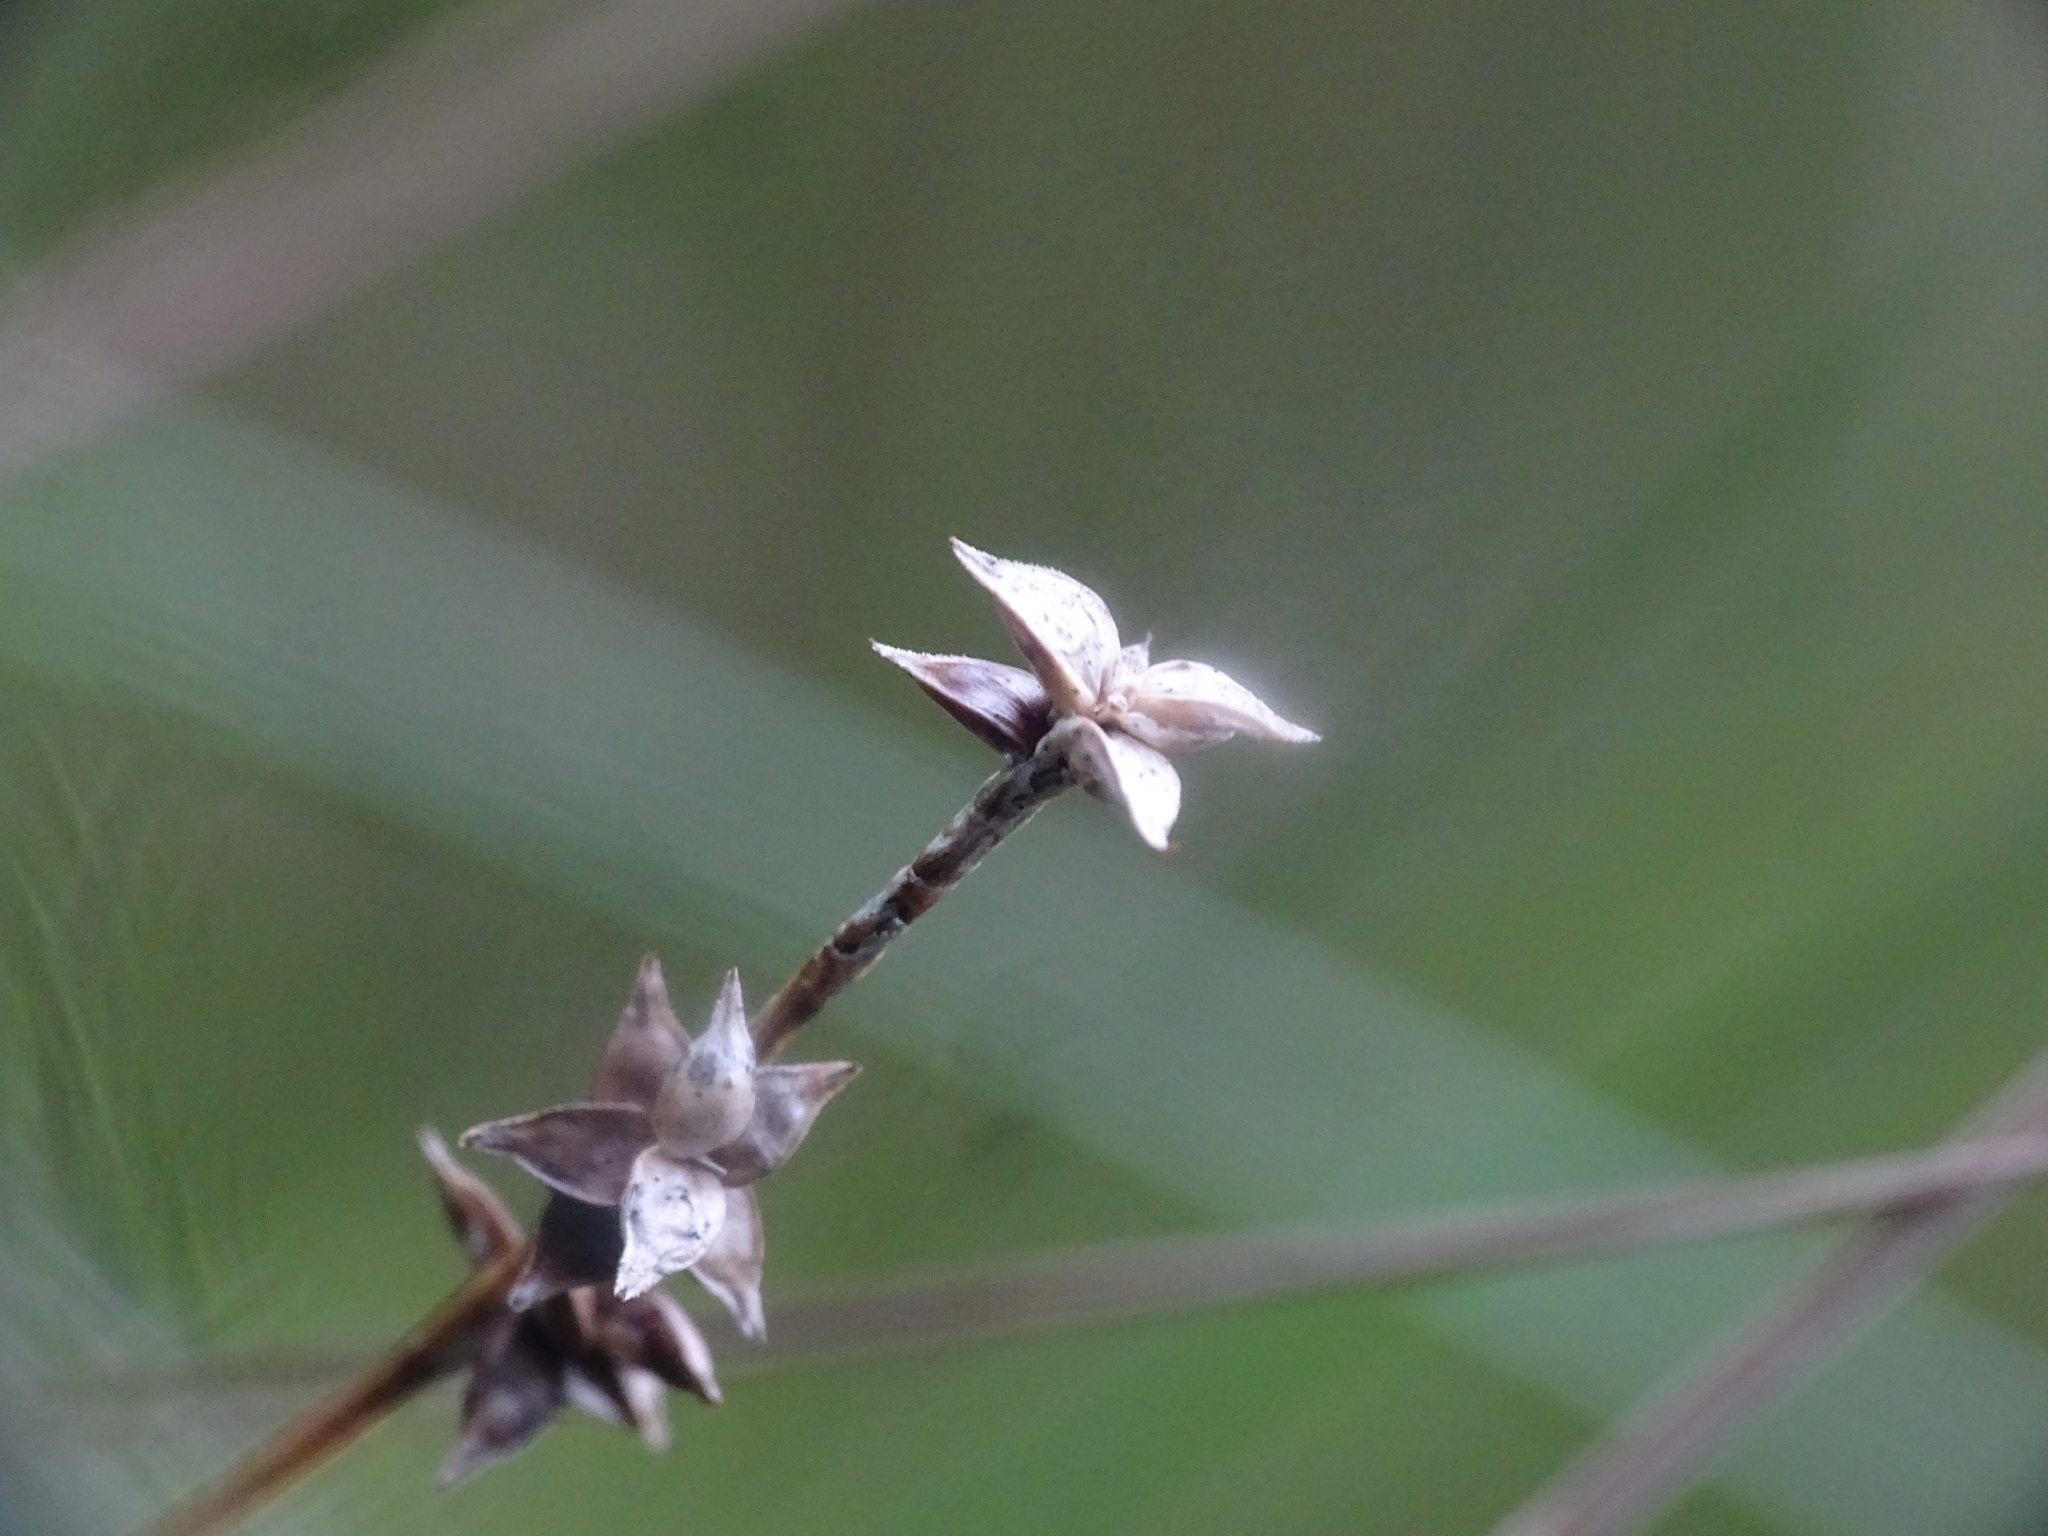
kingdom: Plantae
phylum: Tracheophyta
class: Liliopsida
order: Poales
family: Cyperaceae
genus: Carex
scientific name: Carex interior
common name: Inland sedge
